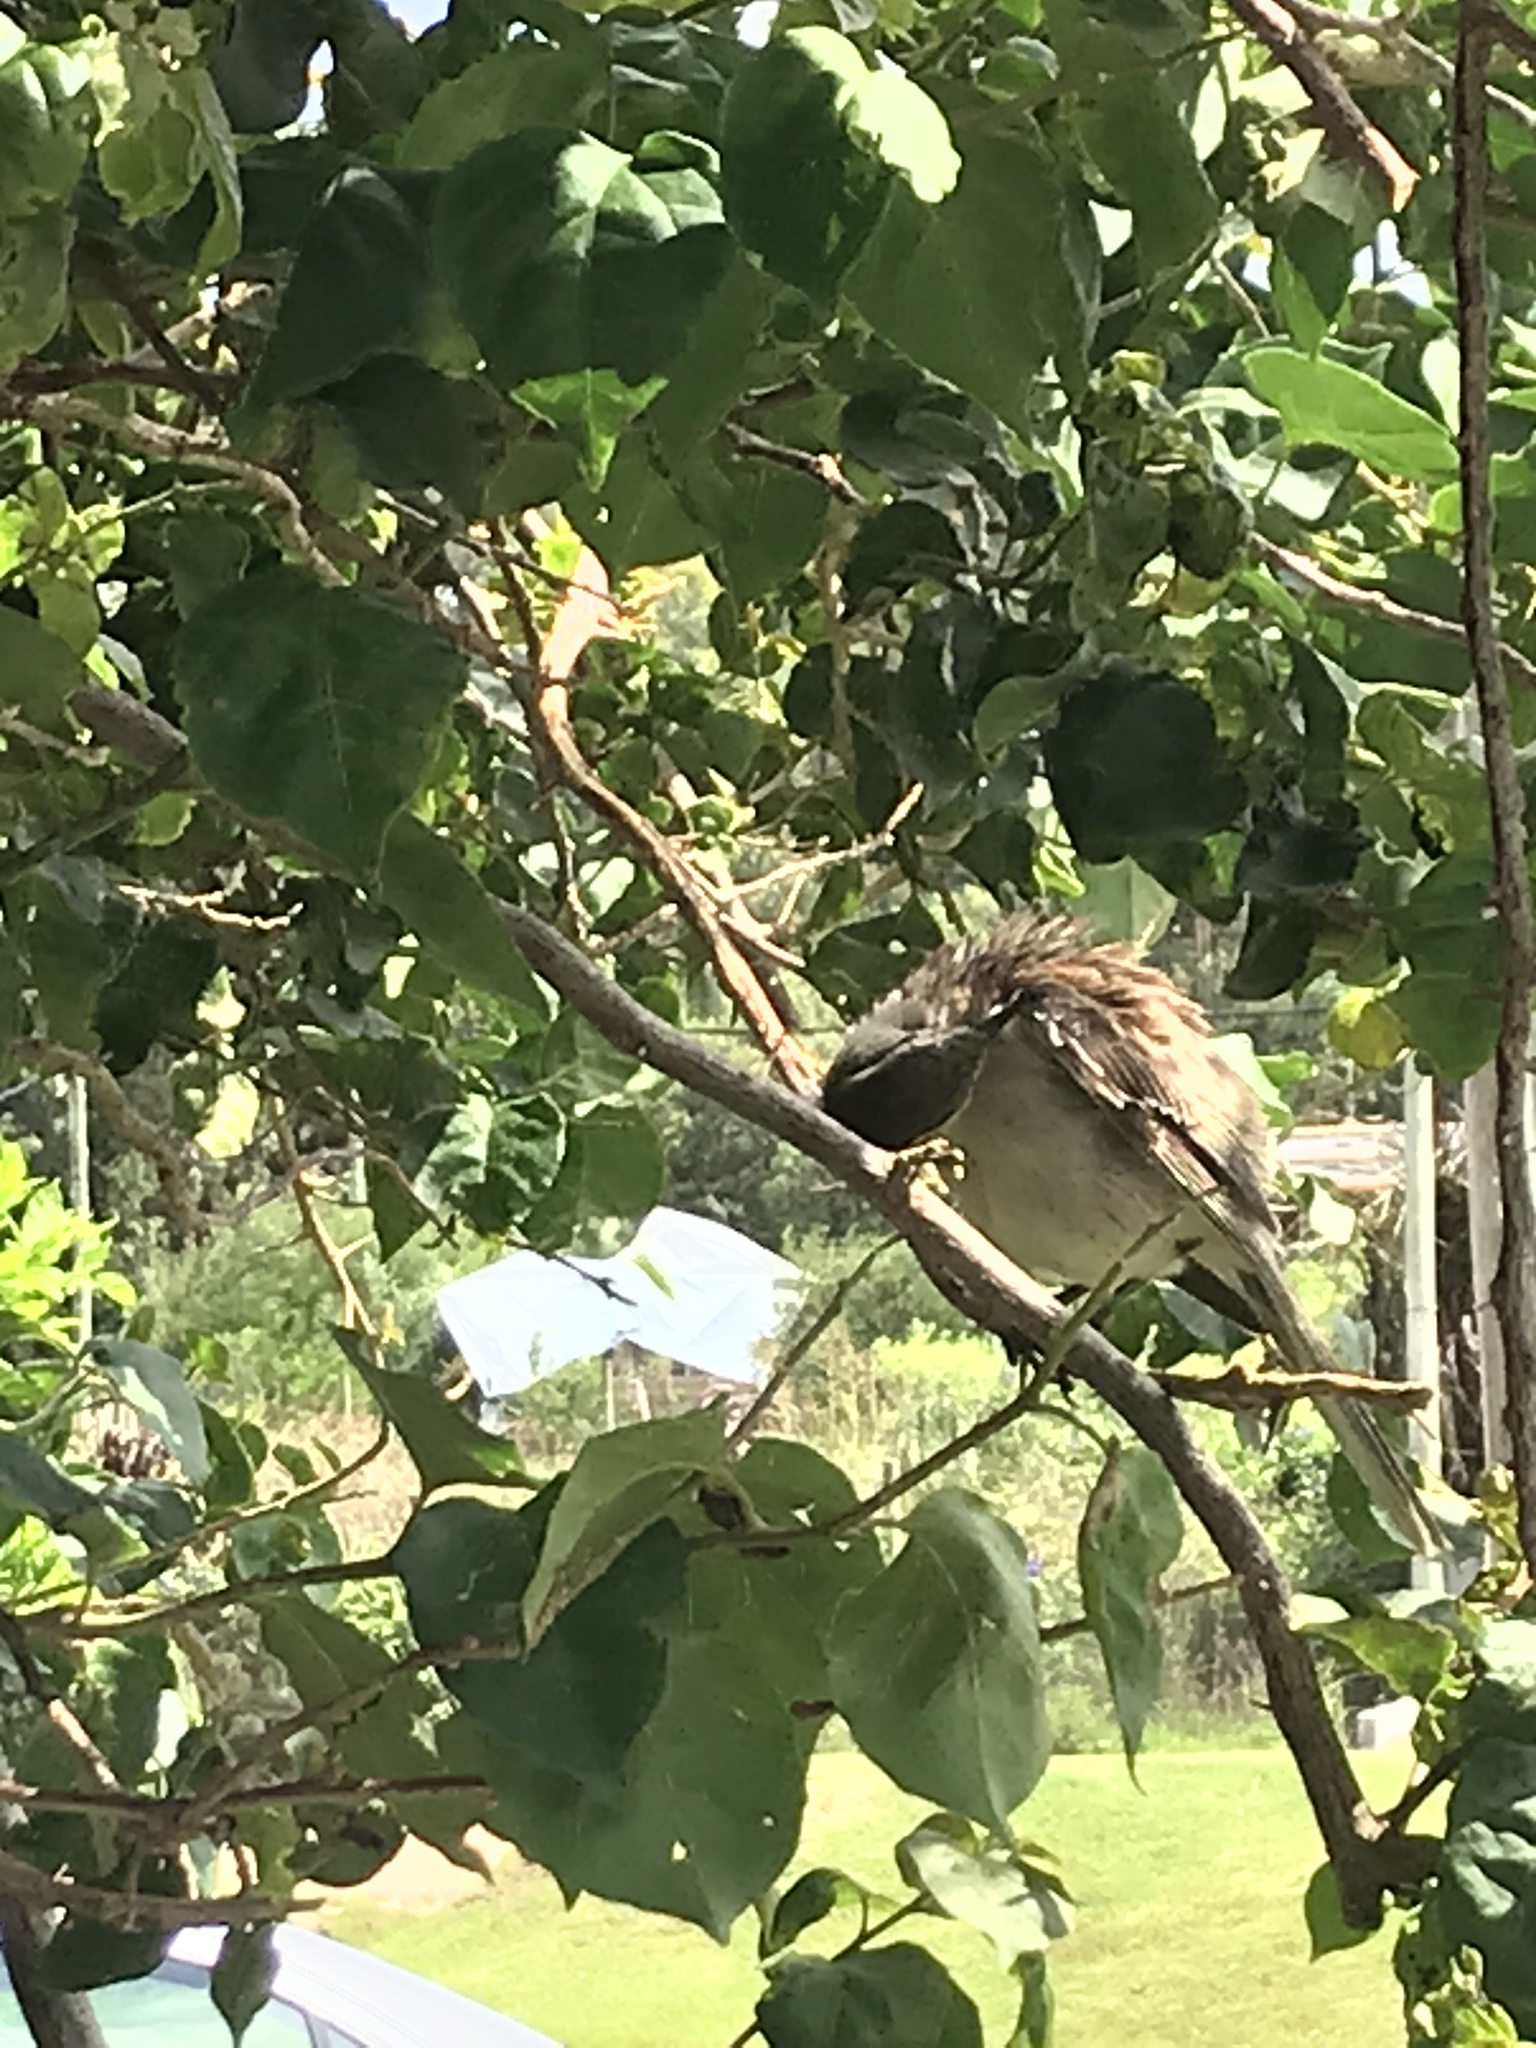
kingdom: Animalia
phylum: Chordata
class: Aves
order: Passeriformes
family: Mimidae
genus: Mimus
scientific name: Mimus saturninus
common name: Chalk-browed mockingbird
